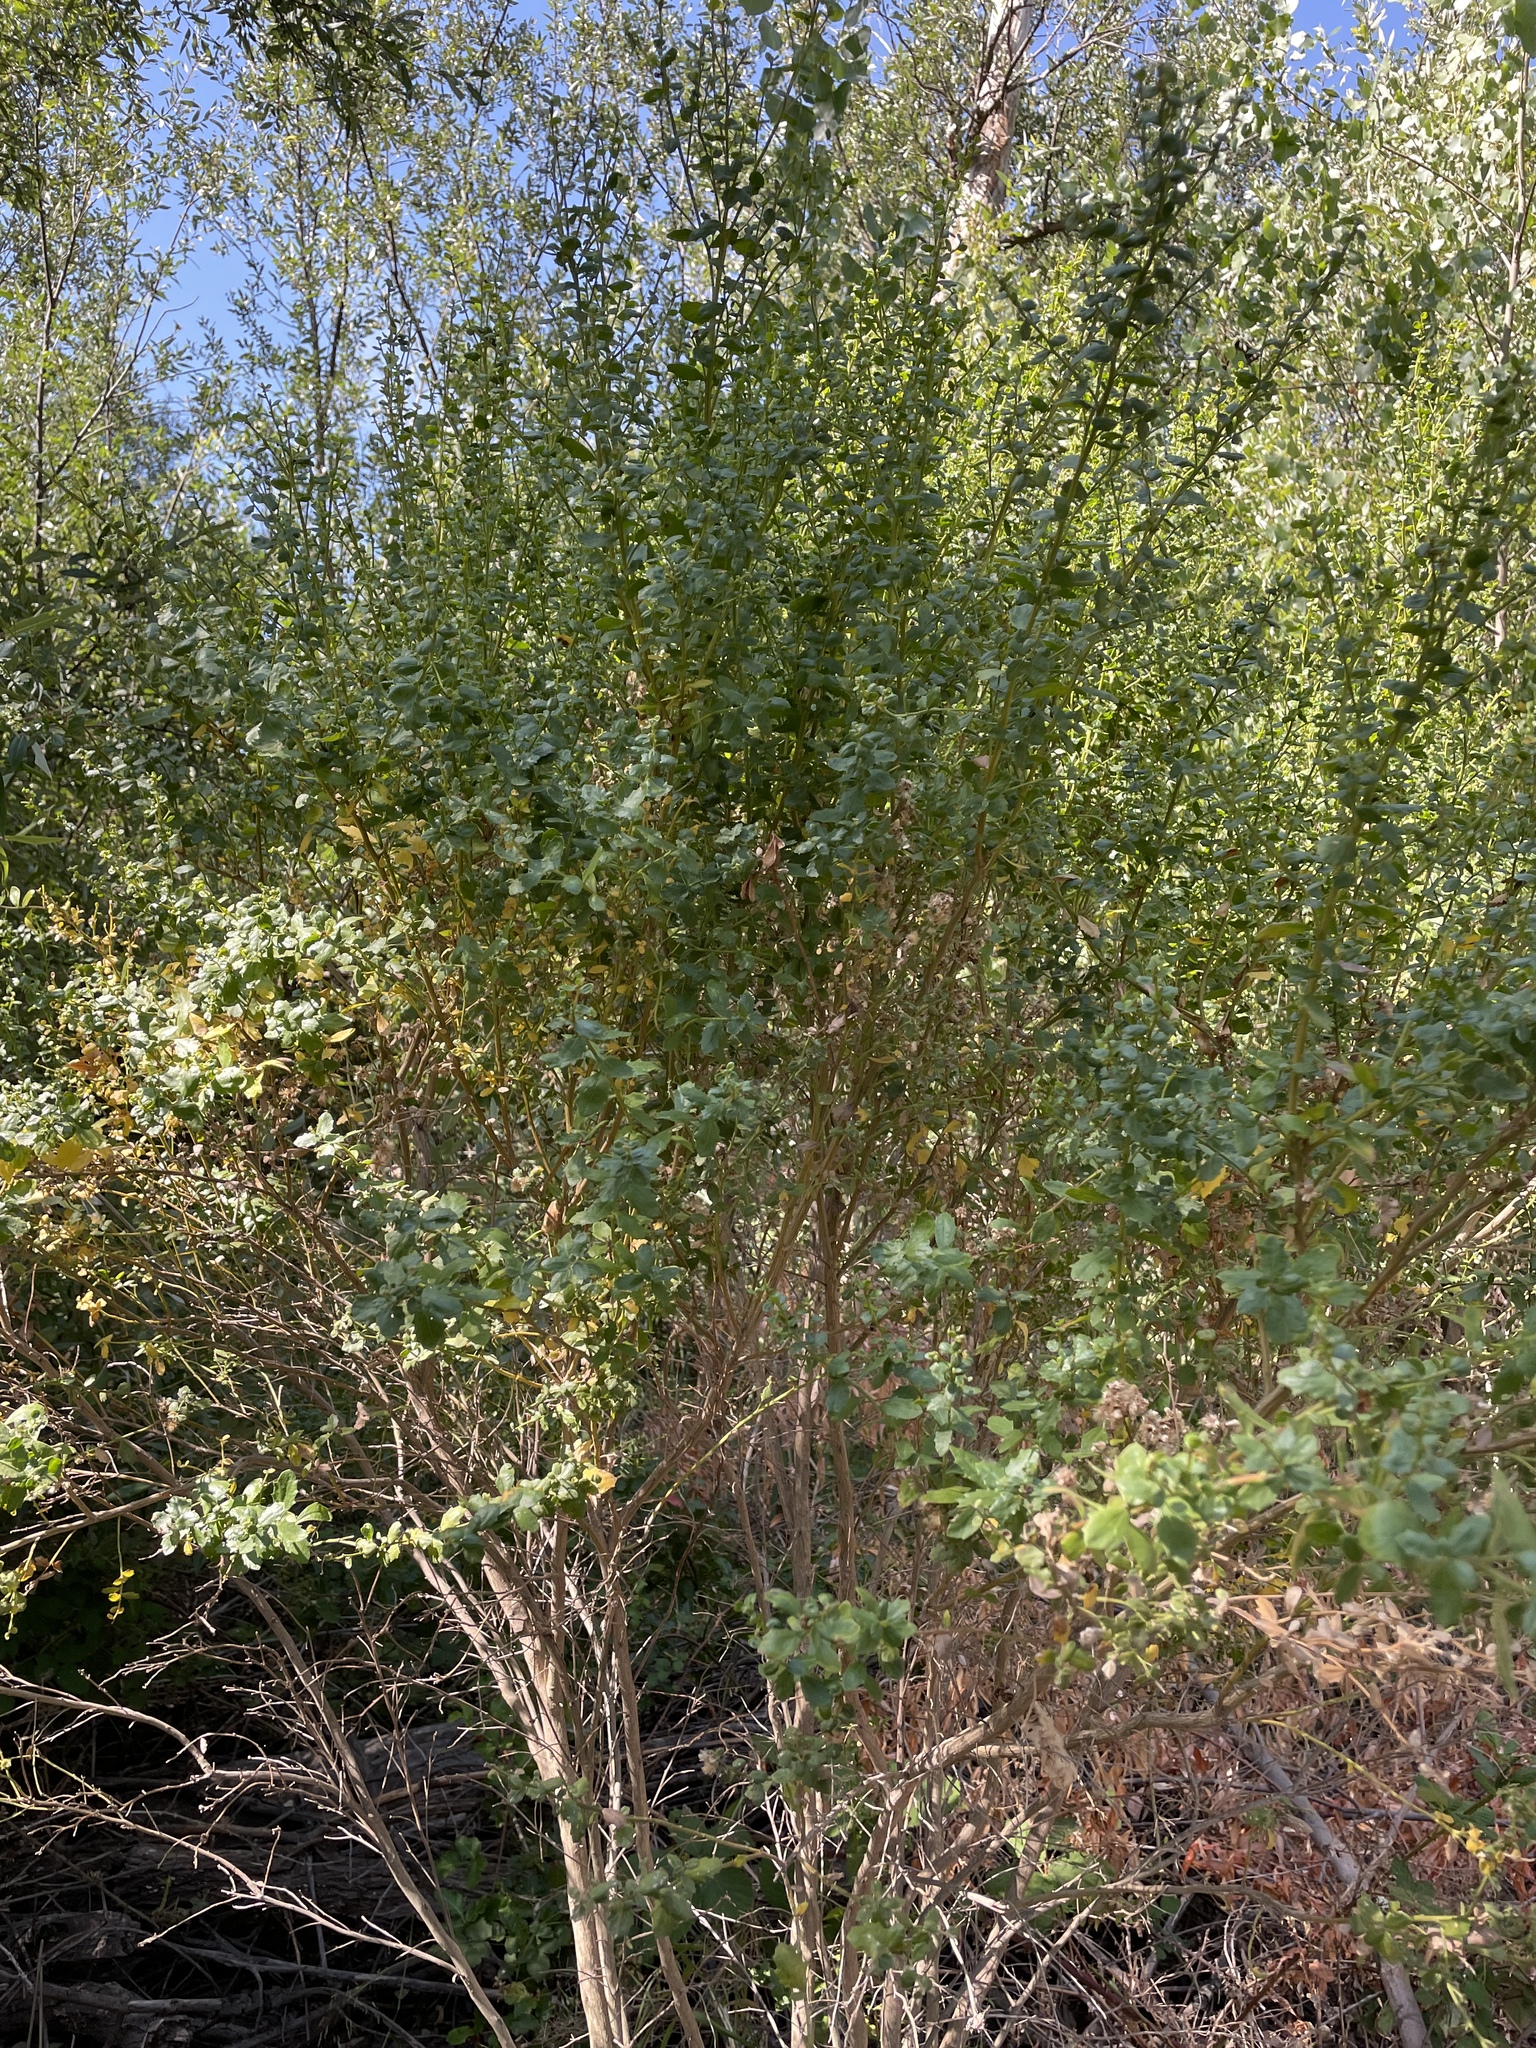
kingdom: Plantae
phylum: Tracheophyta
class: Magnoliopsida
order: Asterales
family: Asteraceae
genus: Baccharis
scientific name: Baccharis pilularis
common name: Coyotebrush
